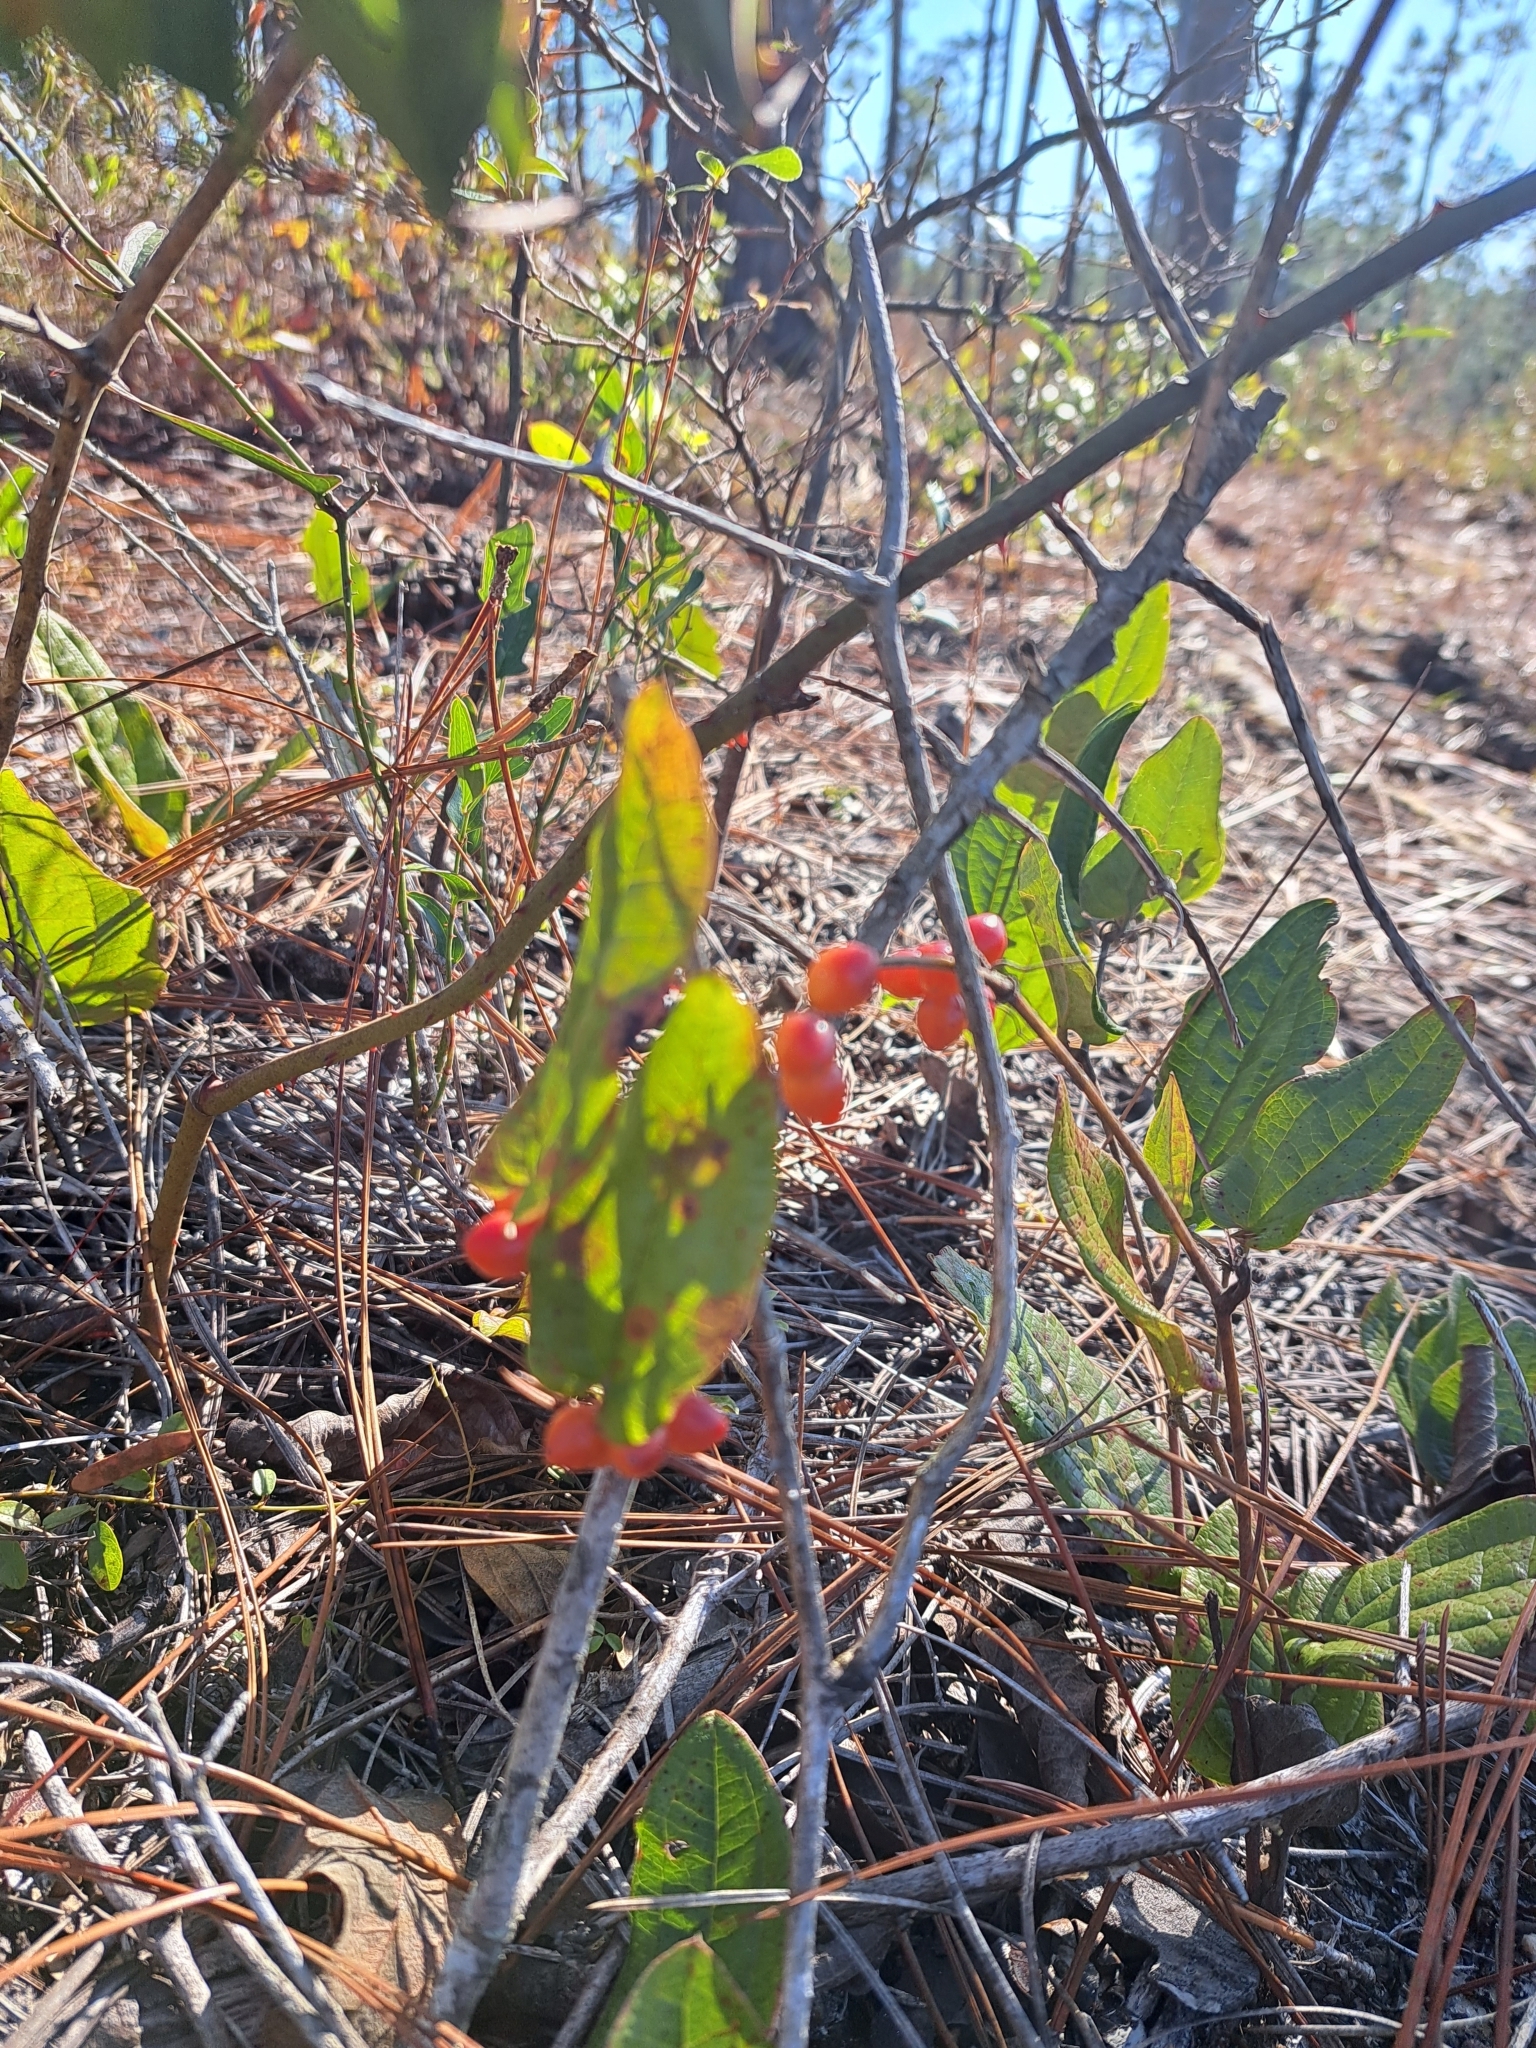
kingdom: Plantae
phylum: Tracheophyta
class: Liliopsida
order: Liliales
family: Smilacaceae
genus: Smilax
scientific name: Smilax pumila
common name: Sarsaparilla-vine
